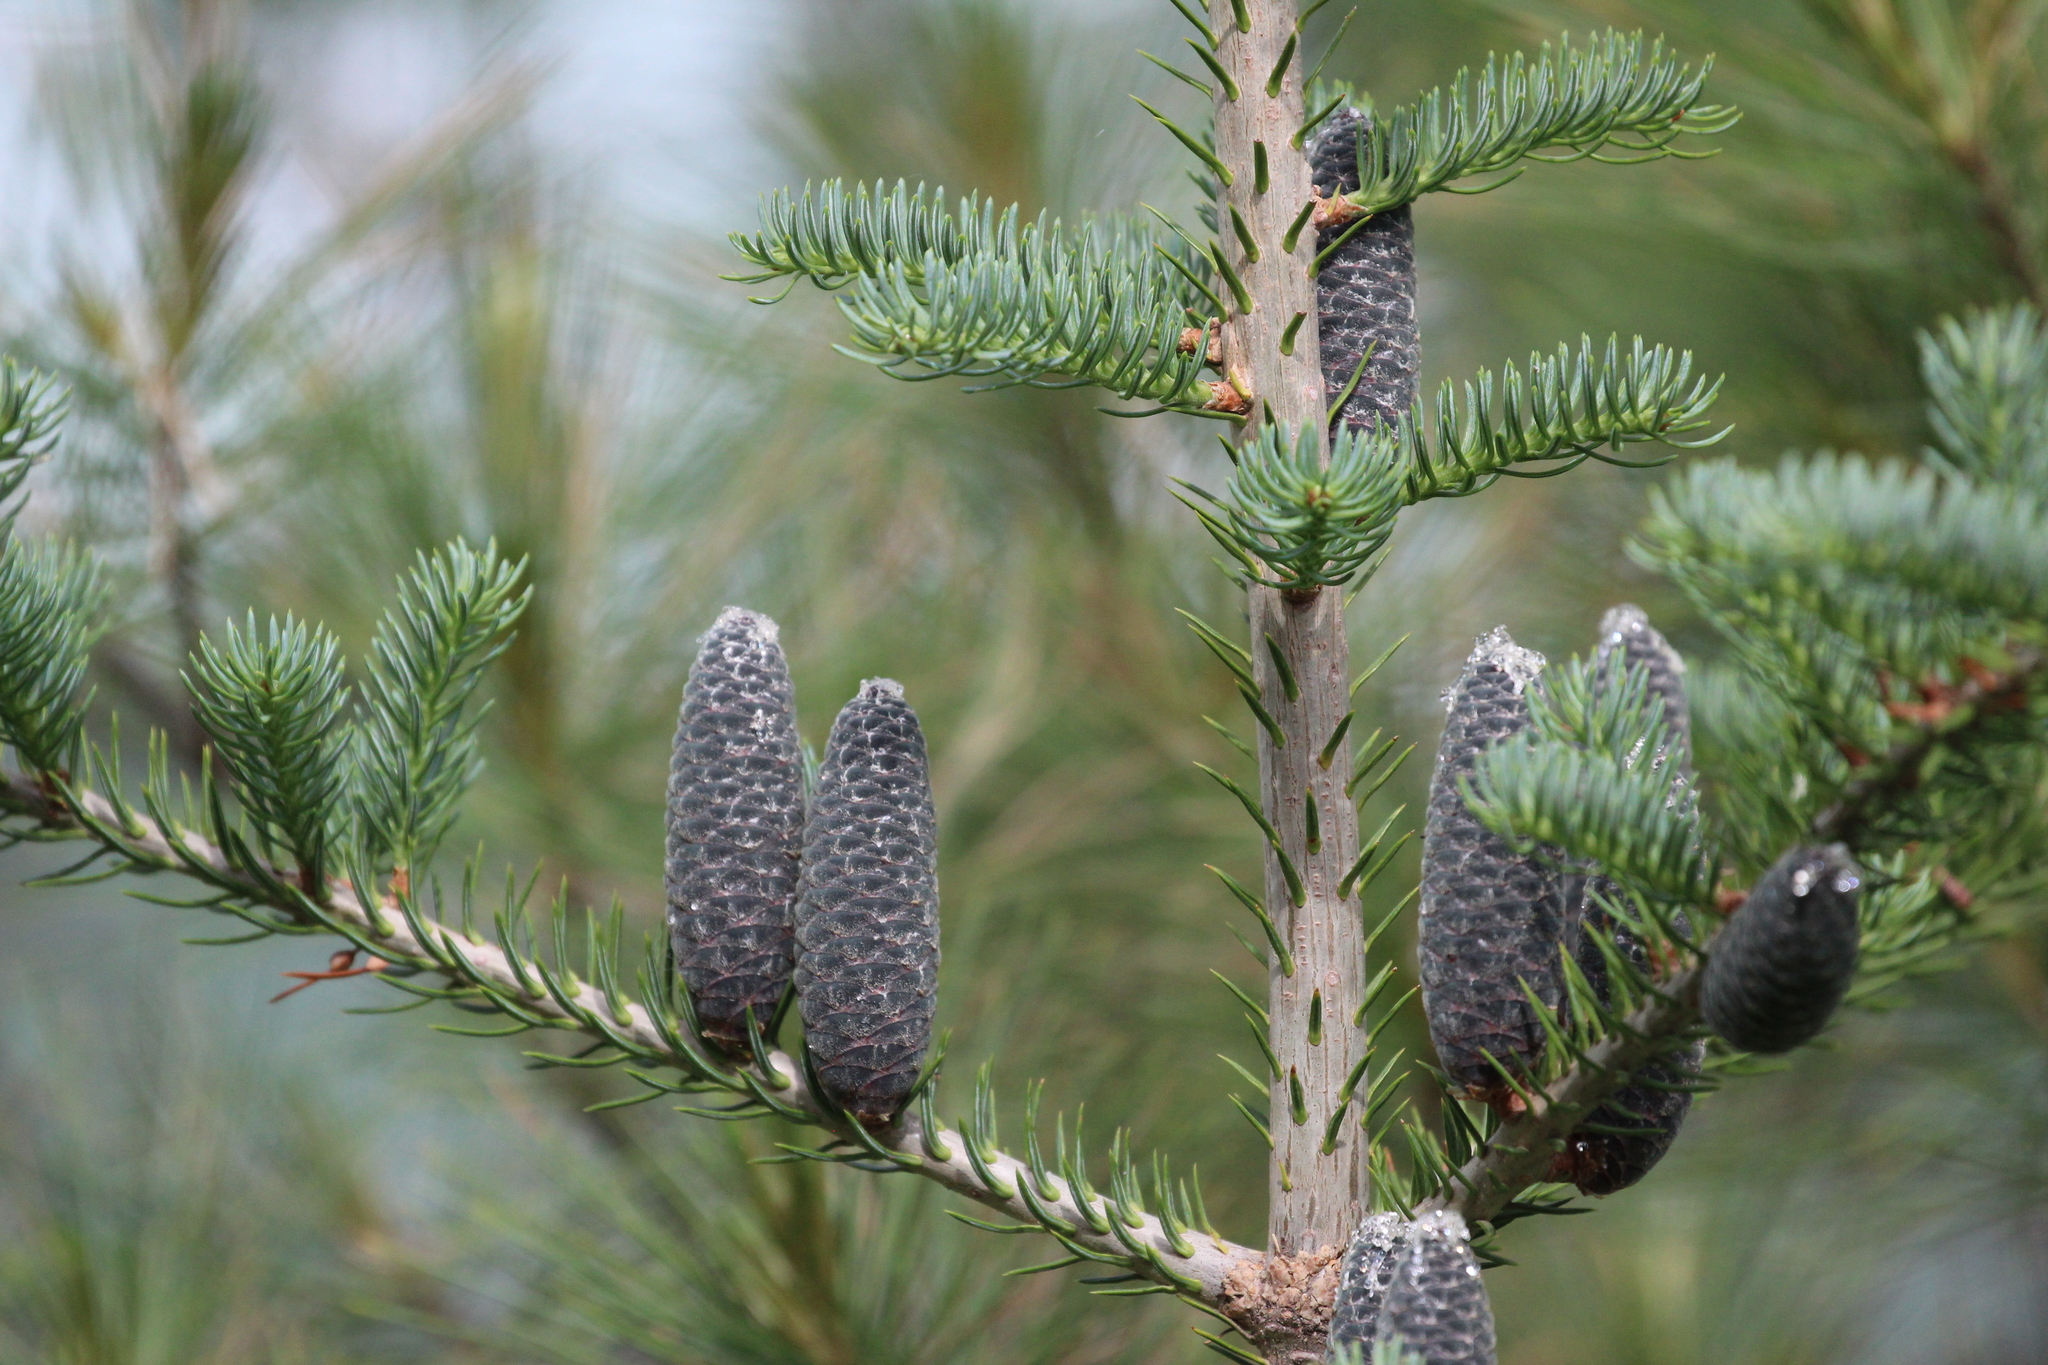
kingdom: Plantae
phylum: Tracheophyta
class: Pinopsida
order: Pinales
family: Pinaceae
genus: Abies
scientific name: Abies balsamea
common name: Balsam fir
